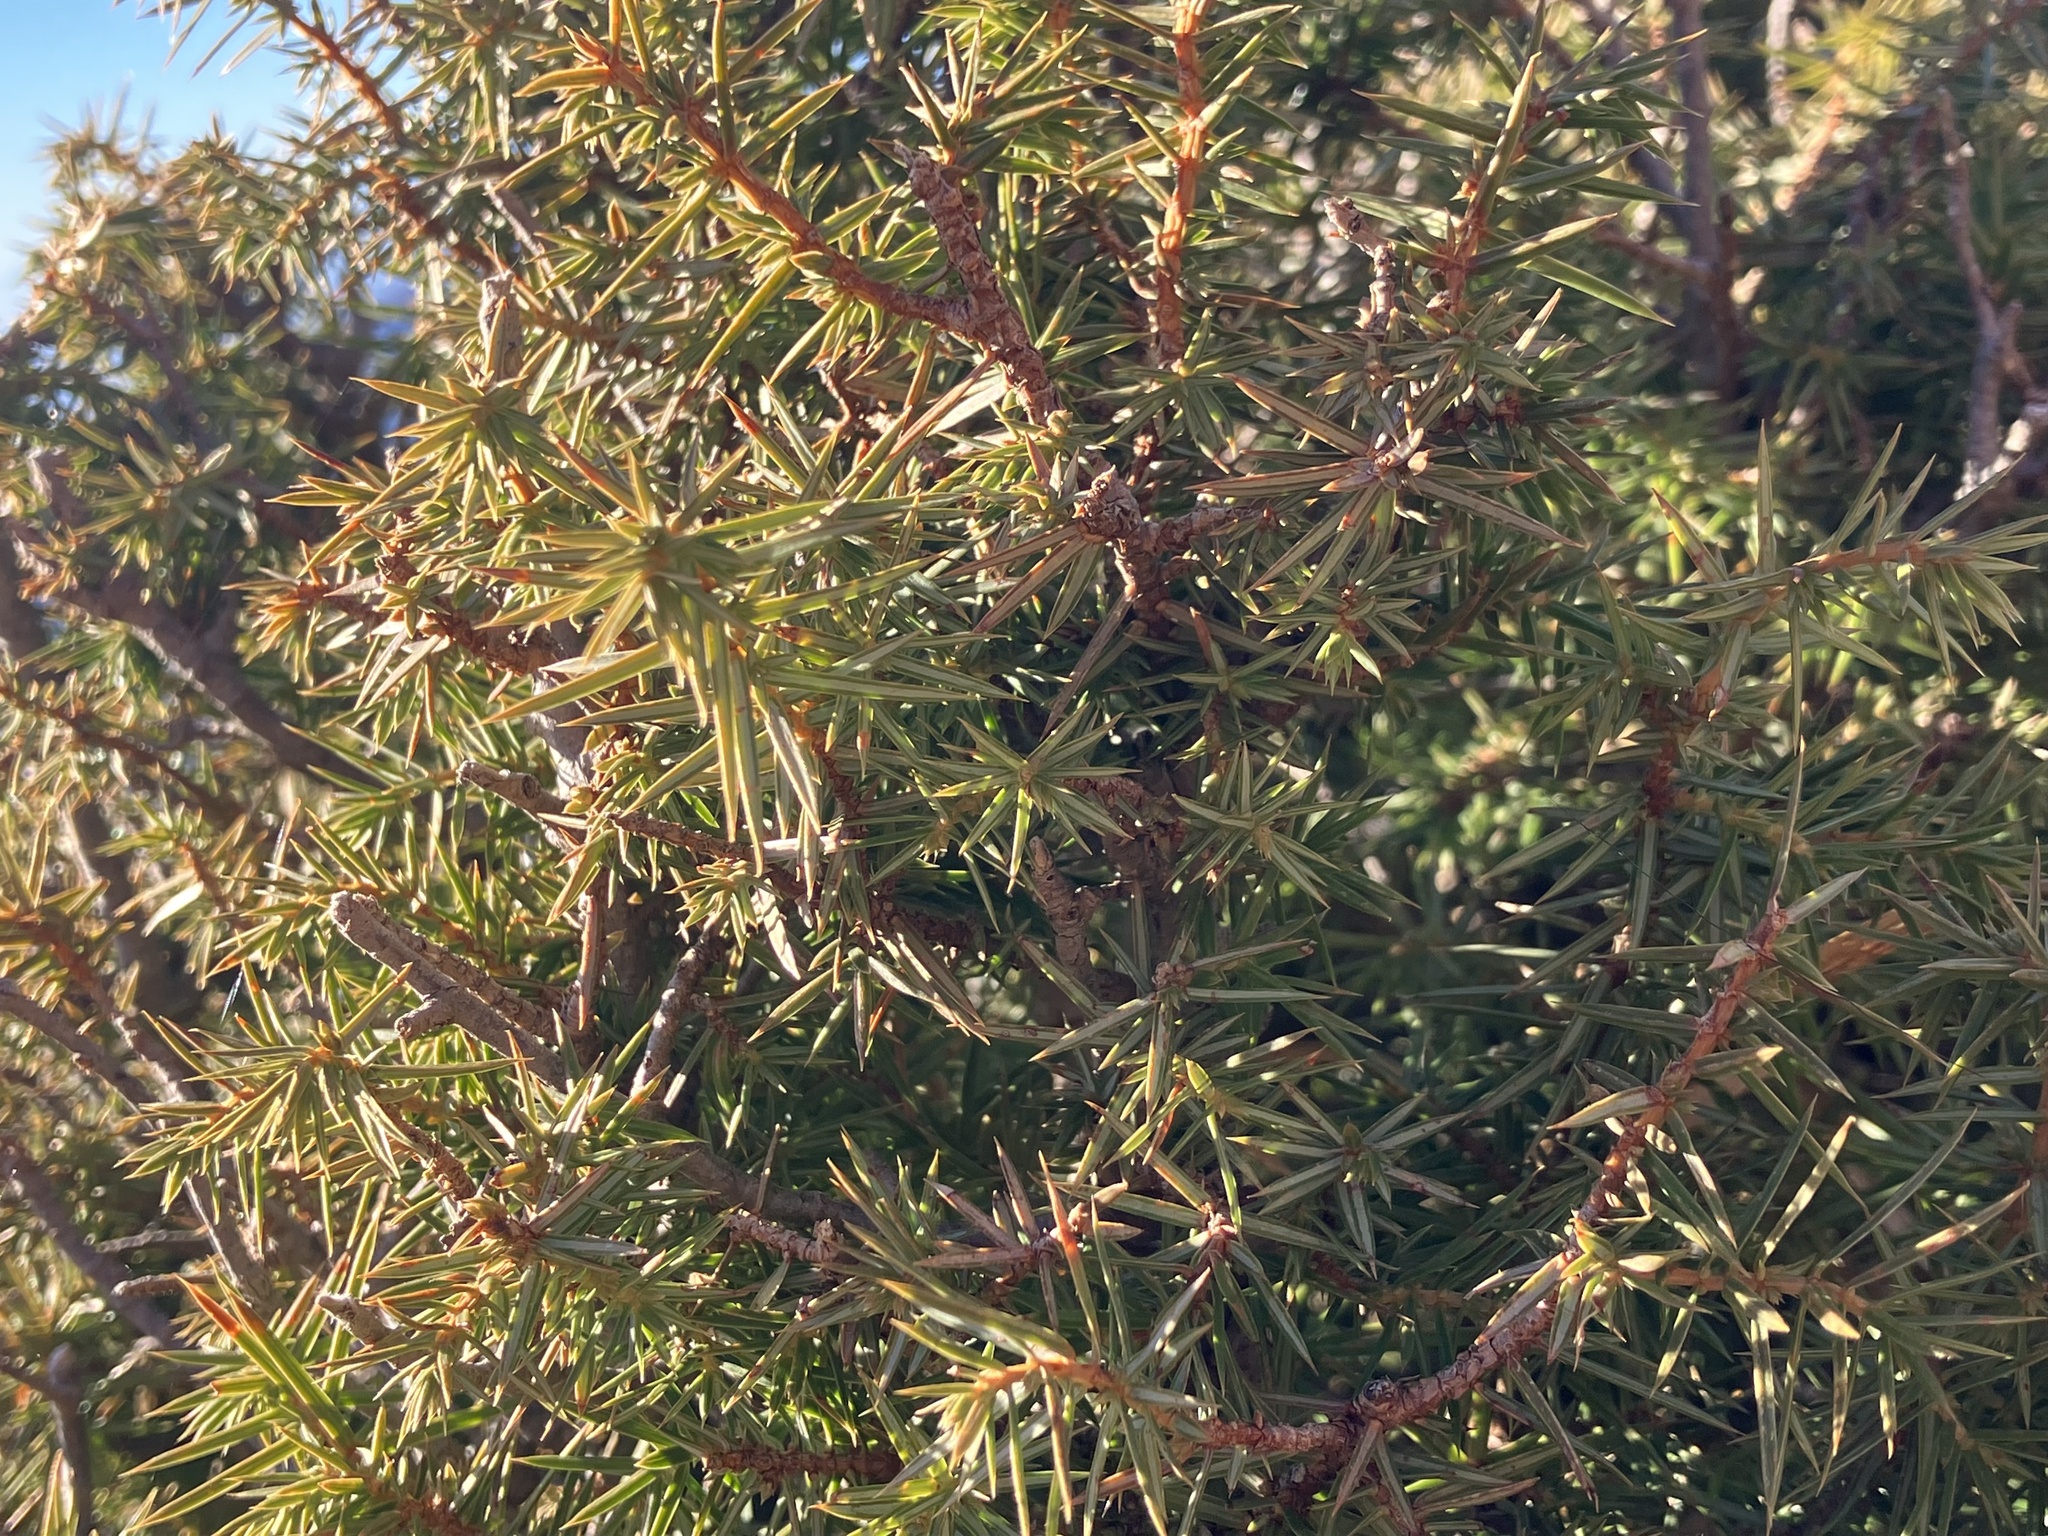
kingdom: Plantae
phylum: Tracheophyta
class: Pinopsida
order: Pinales
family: Cupressaceae
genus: Juniperus
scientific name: Juniperus communis
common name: Common juniper
